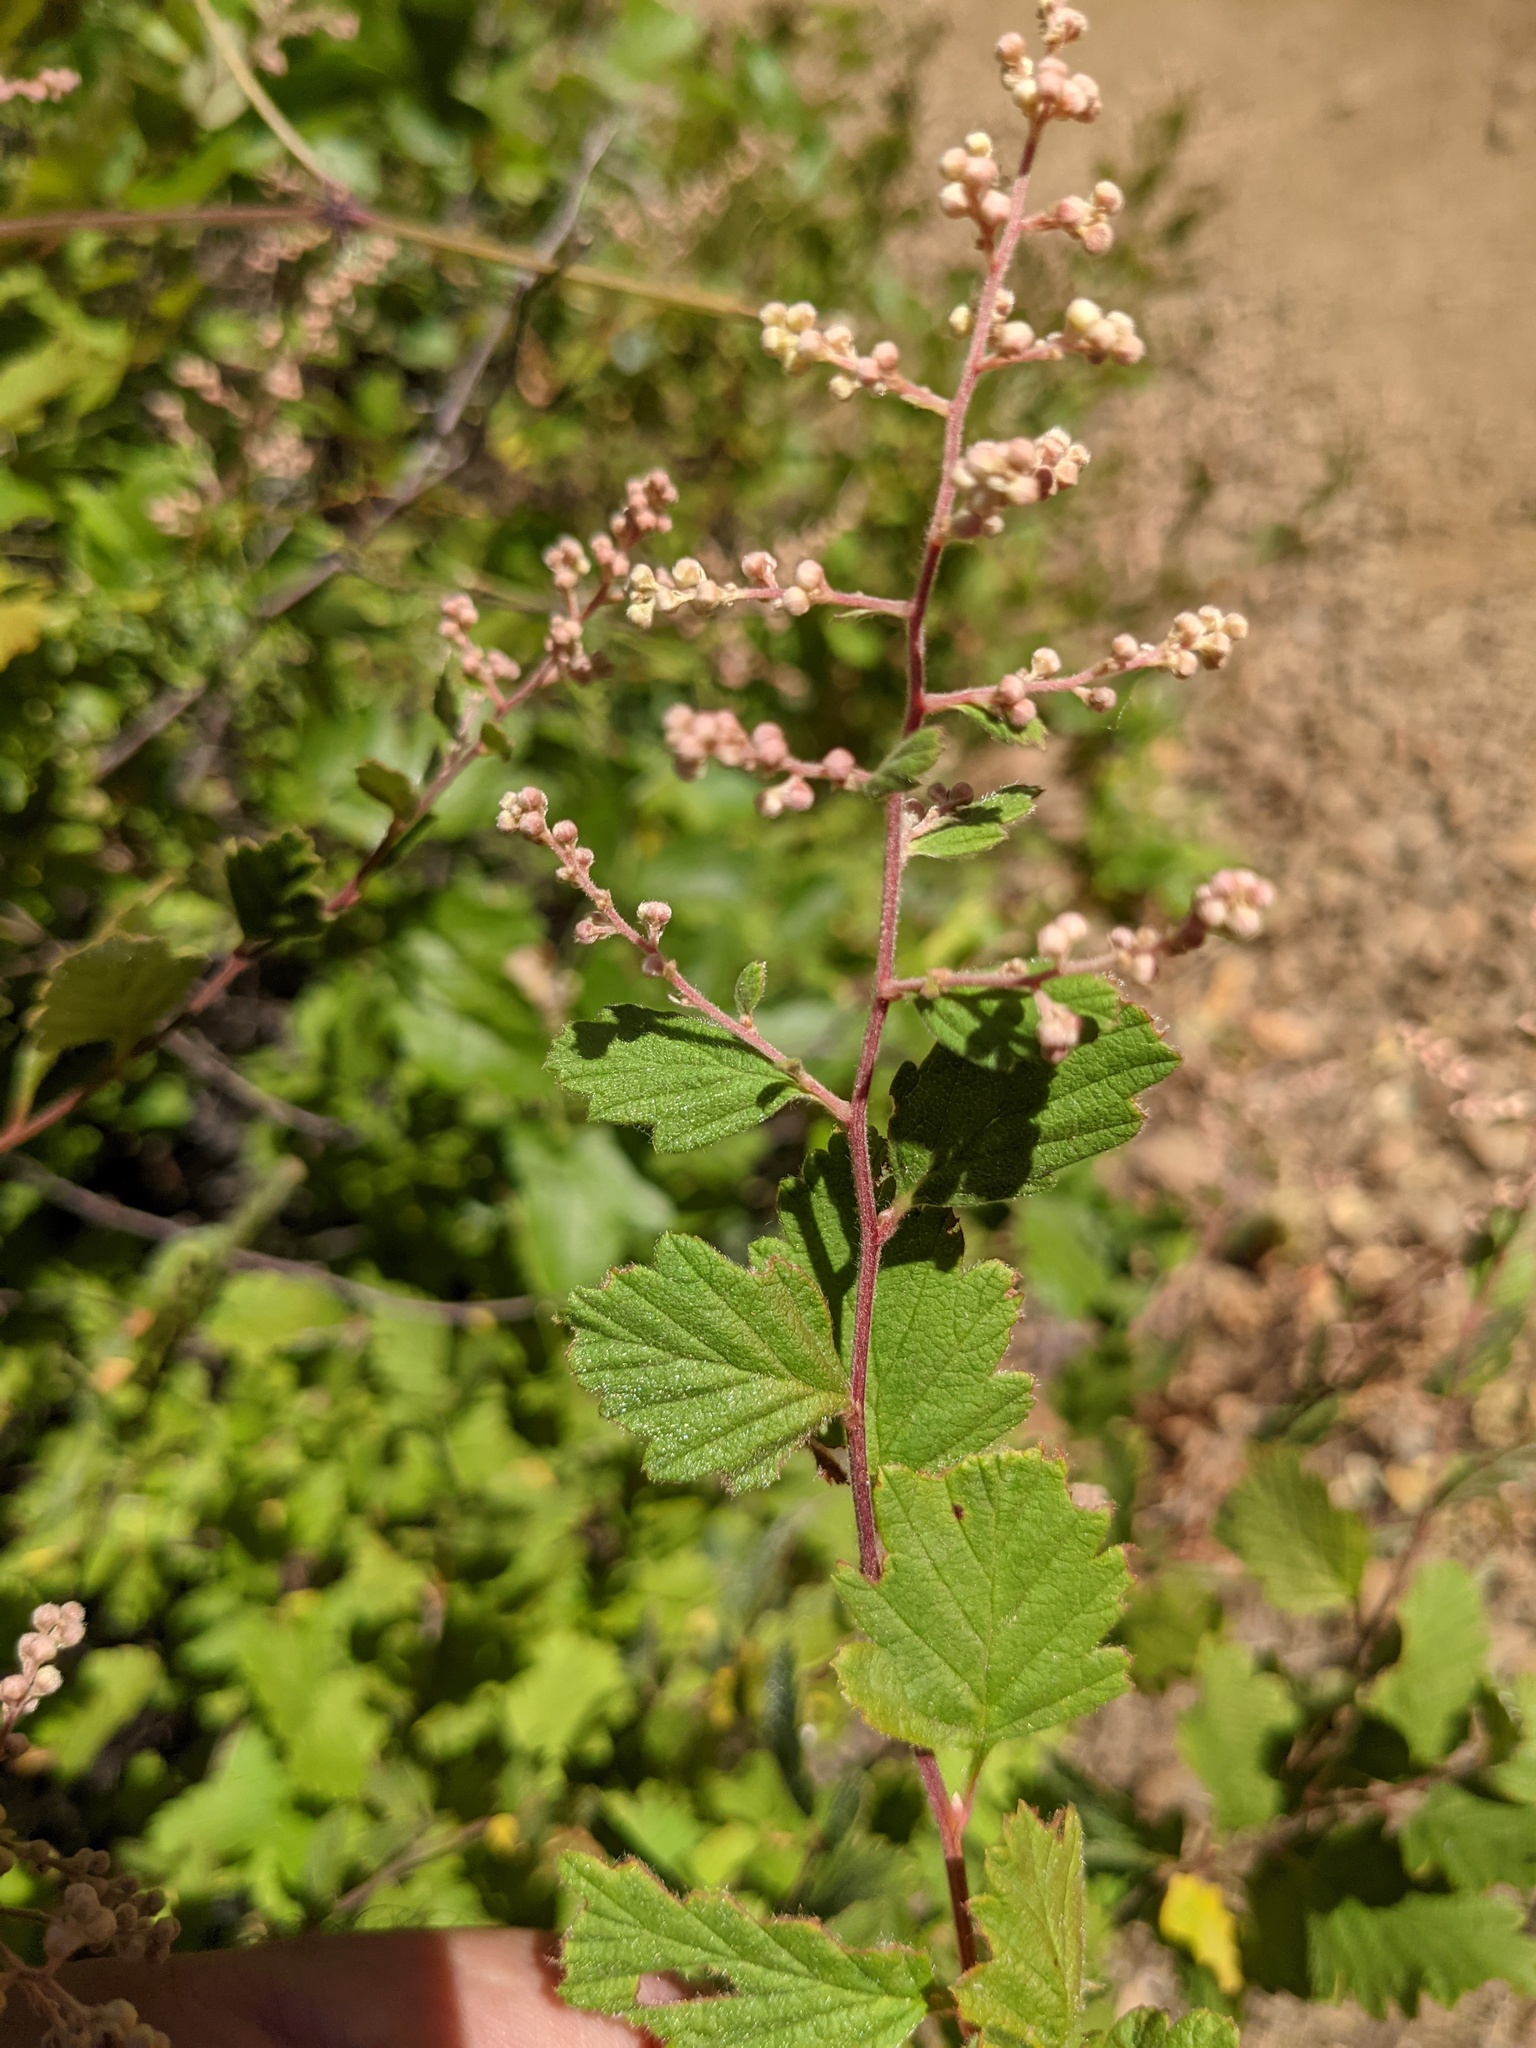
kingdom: Plantae
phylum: Tracheophyta
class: Magnoliopsida
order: Rosales
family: Rosaceae
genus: Holodiscus
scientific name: Holodiscus discolor
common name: Oceanspray
